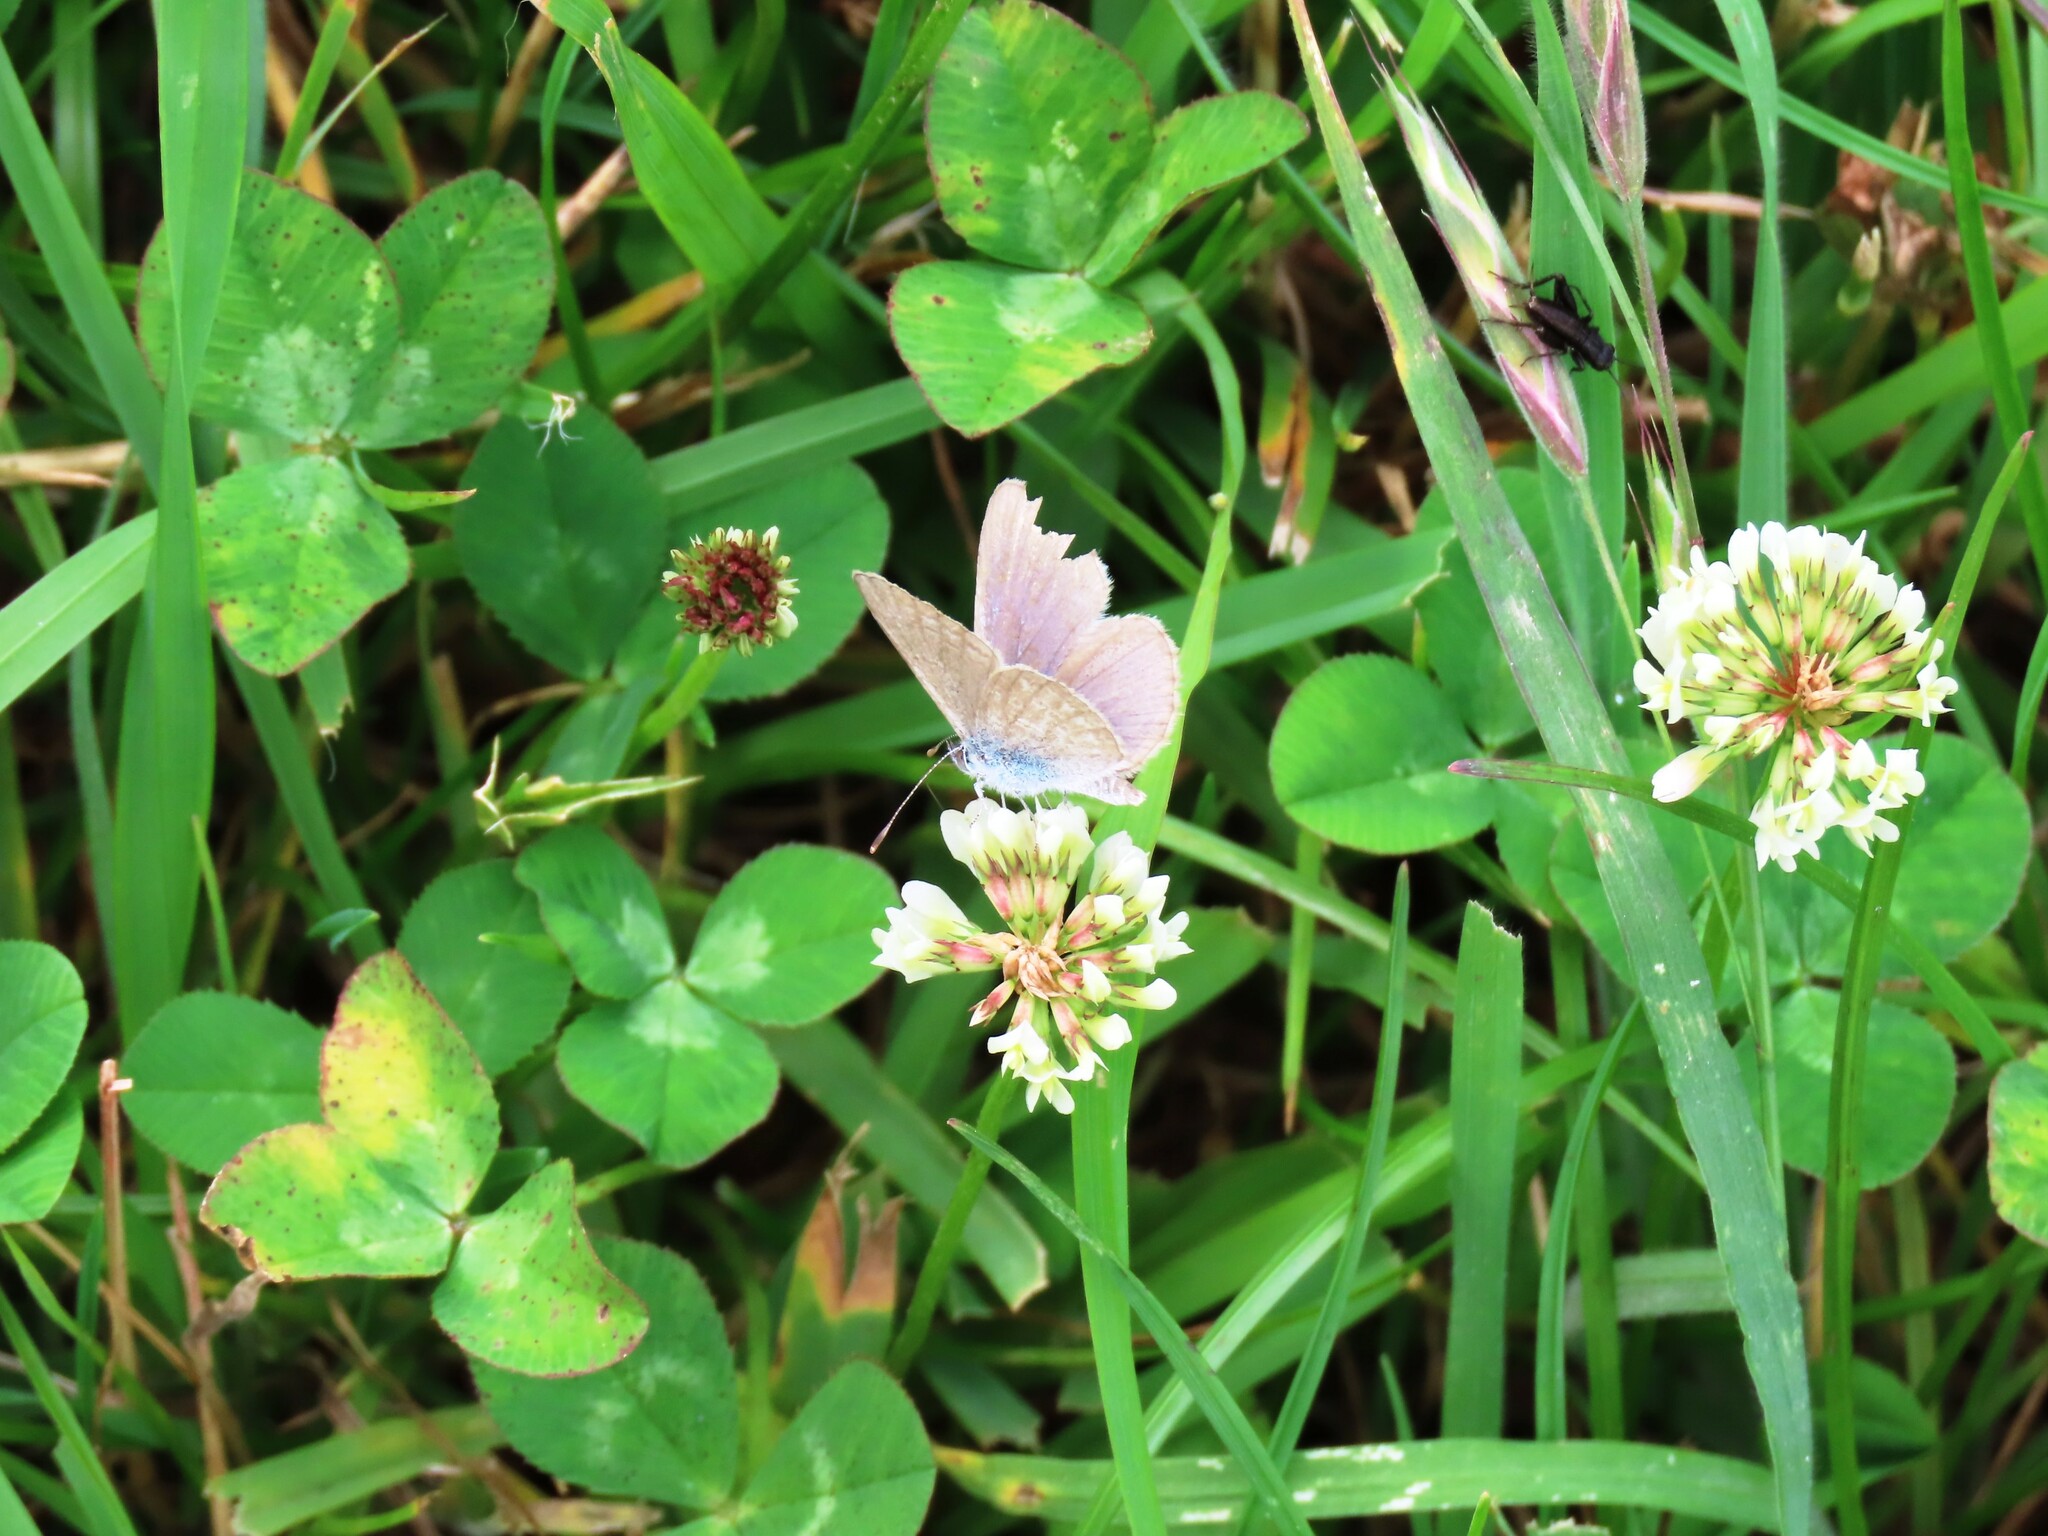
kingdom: Animalia
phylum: Arthropoda
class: Insecta
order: Lepidoptera
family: Lycaenidae
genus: Zizina
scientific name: Zizina otis
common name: Lesser grass blue
